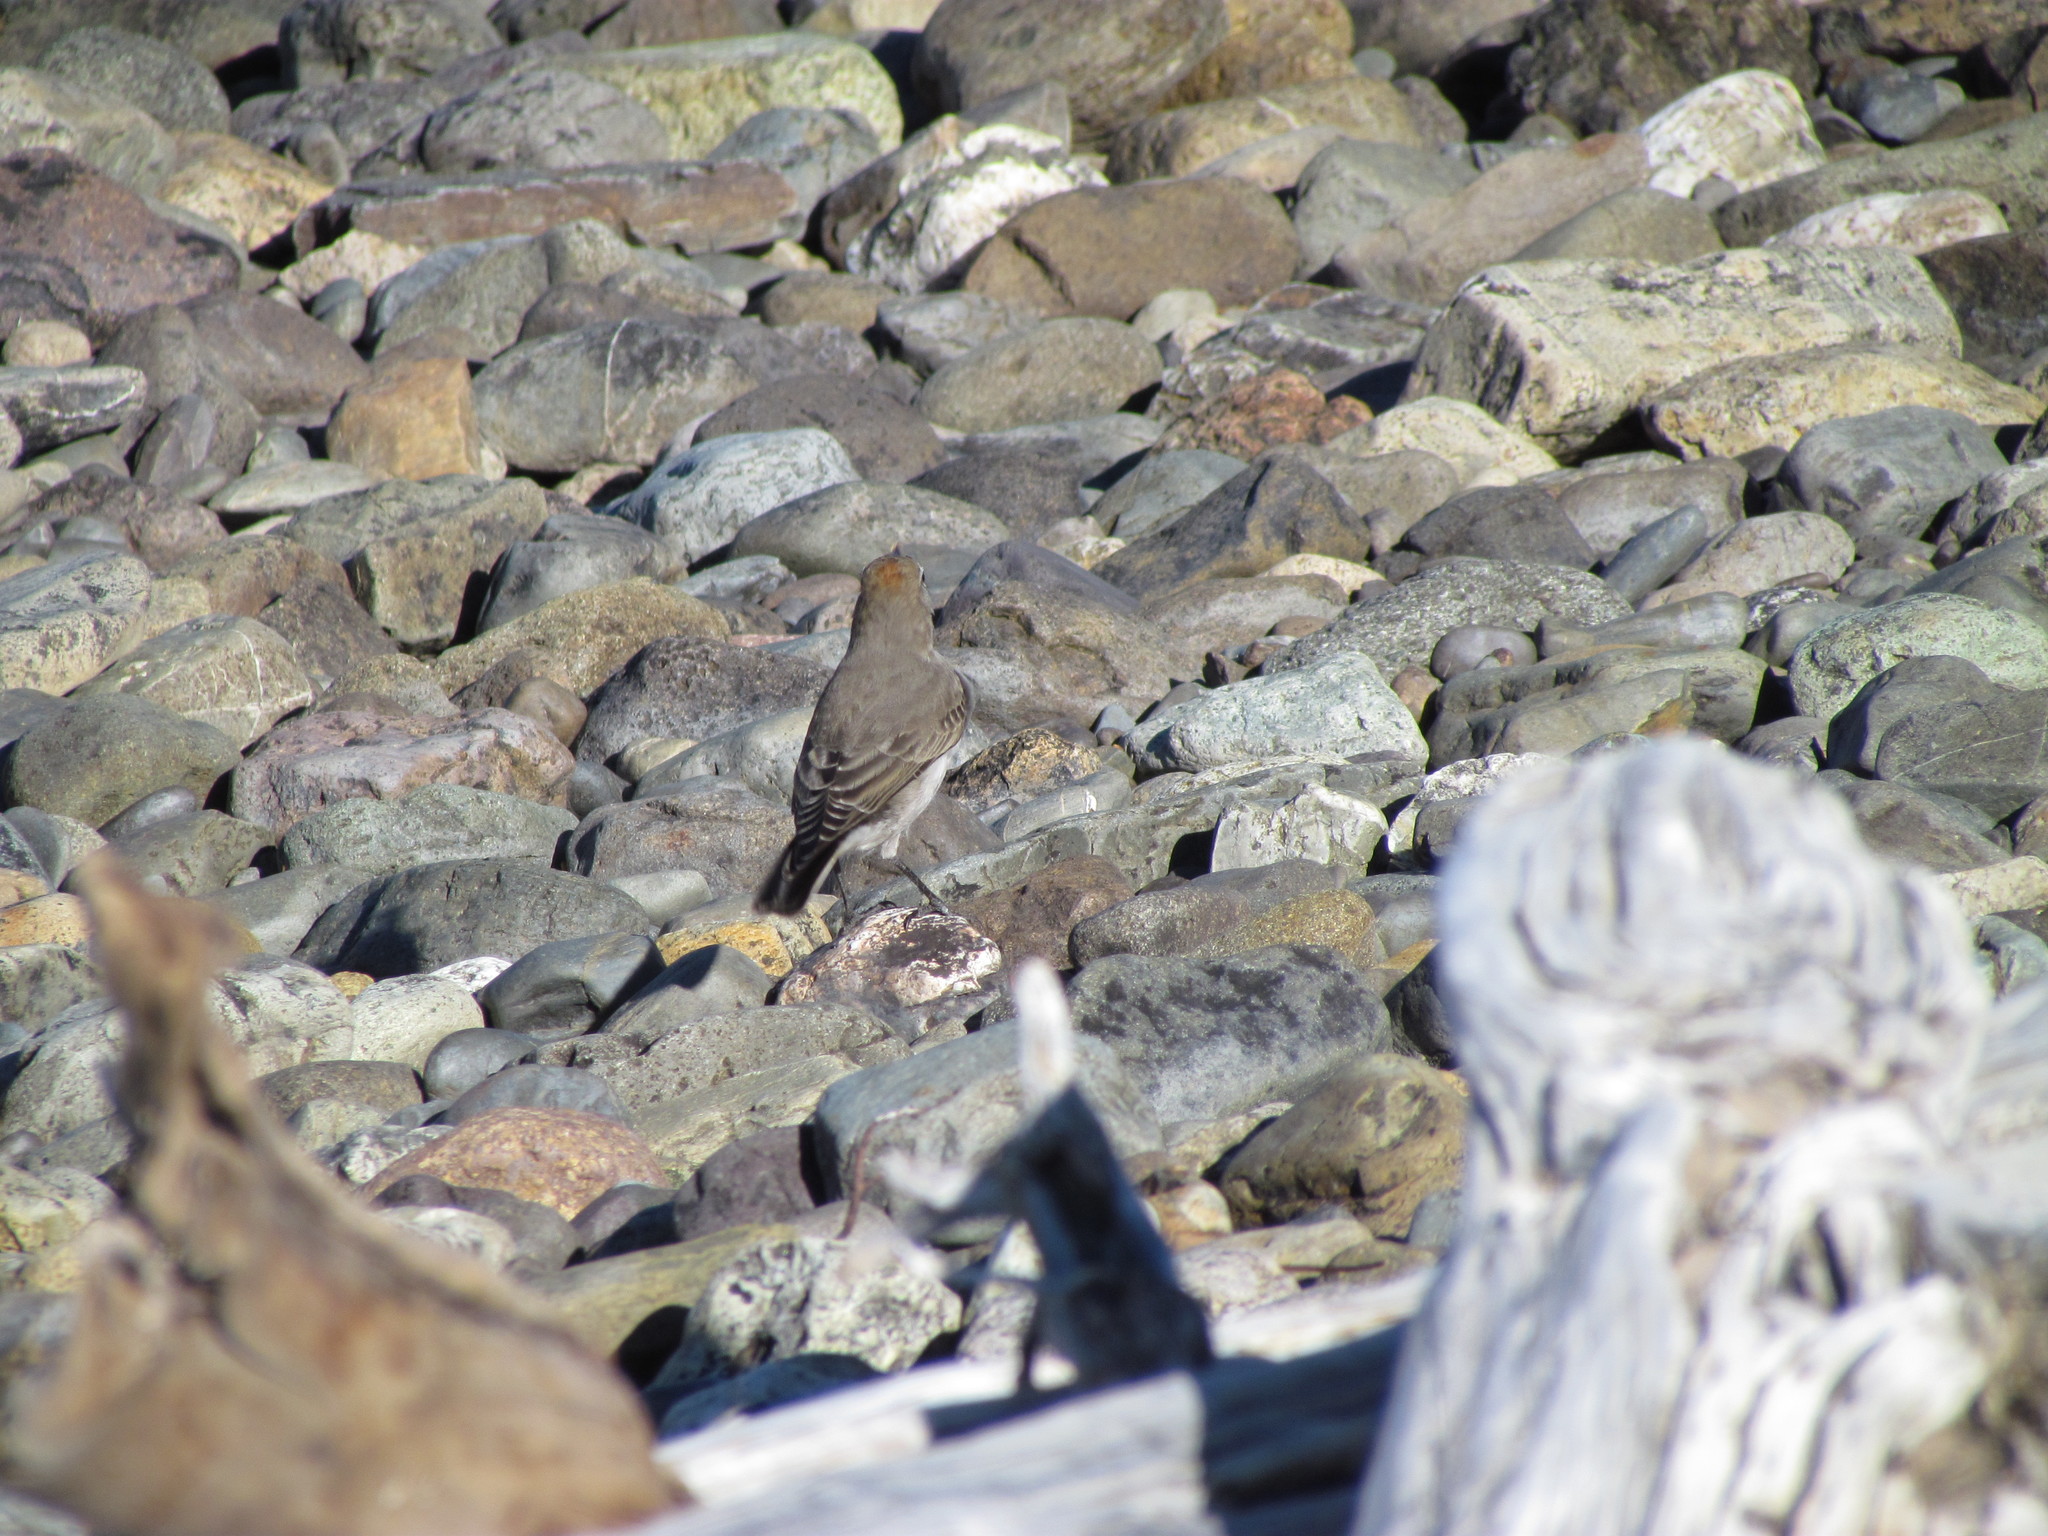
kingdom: Animalia
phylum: Chordata
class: Aves
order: Passeriformes
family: Tyrannidae
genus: Muscisaxicola
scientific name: Muscisaxicola albilora
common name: White-browed ground tyrant
